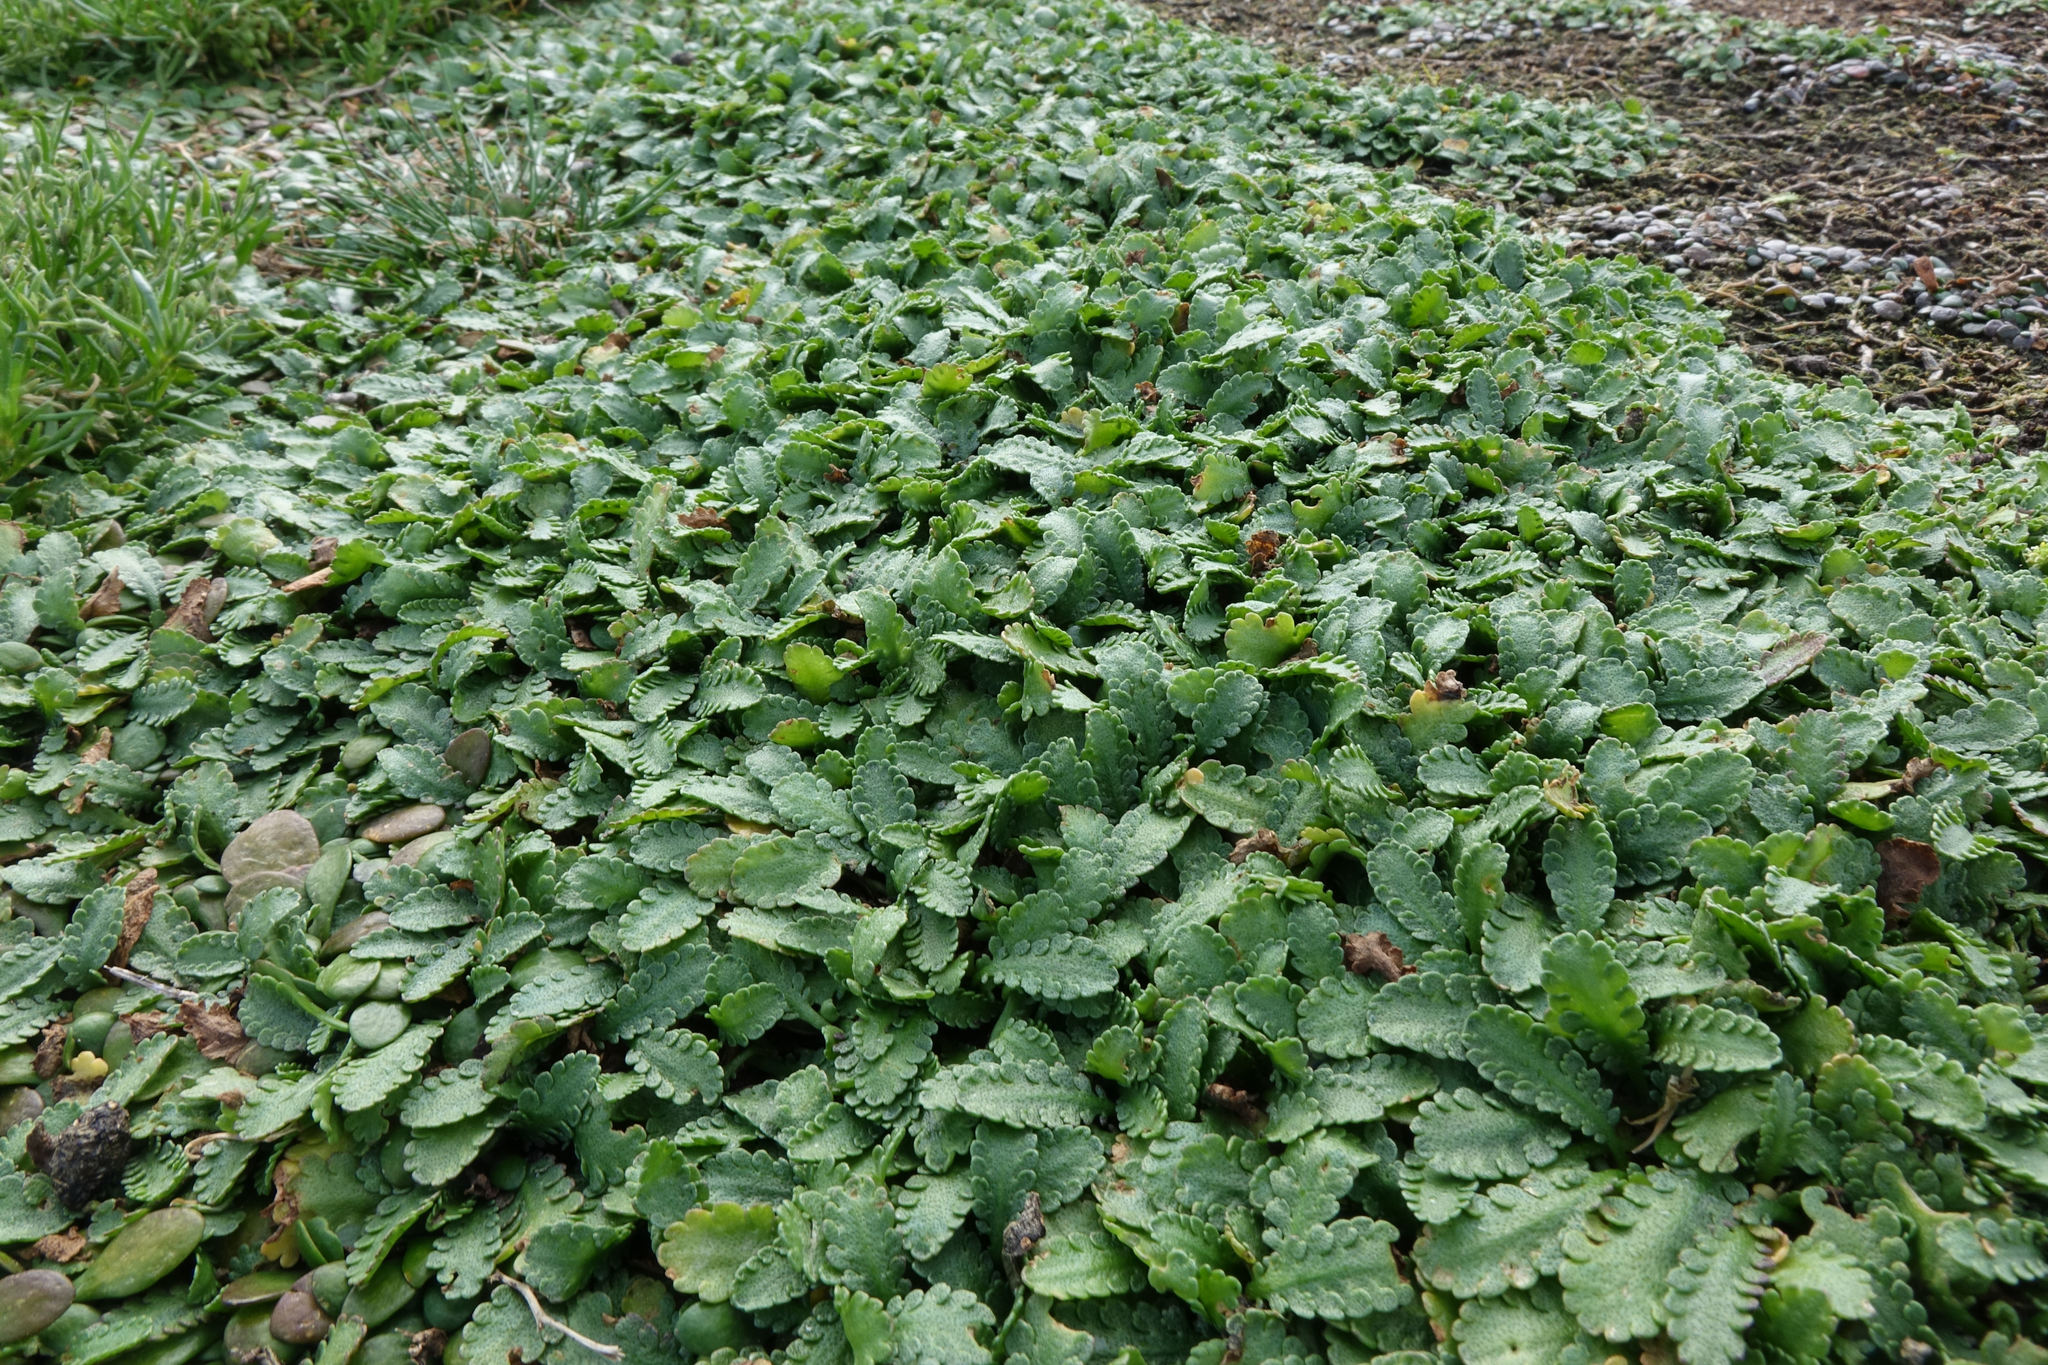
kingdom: Plantae
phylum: Tracheophyta
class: Magnoliopsida
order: Asterales
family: Asteraceae
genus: Leptinella
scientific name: Leptinella dioica
